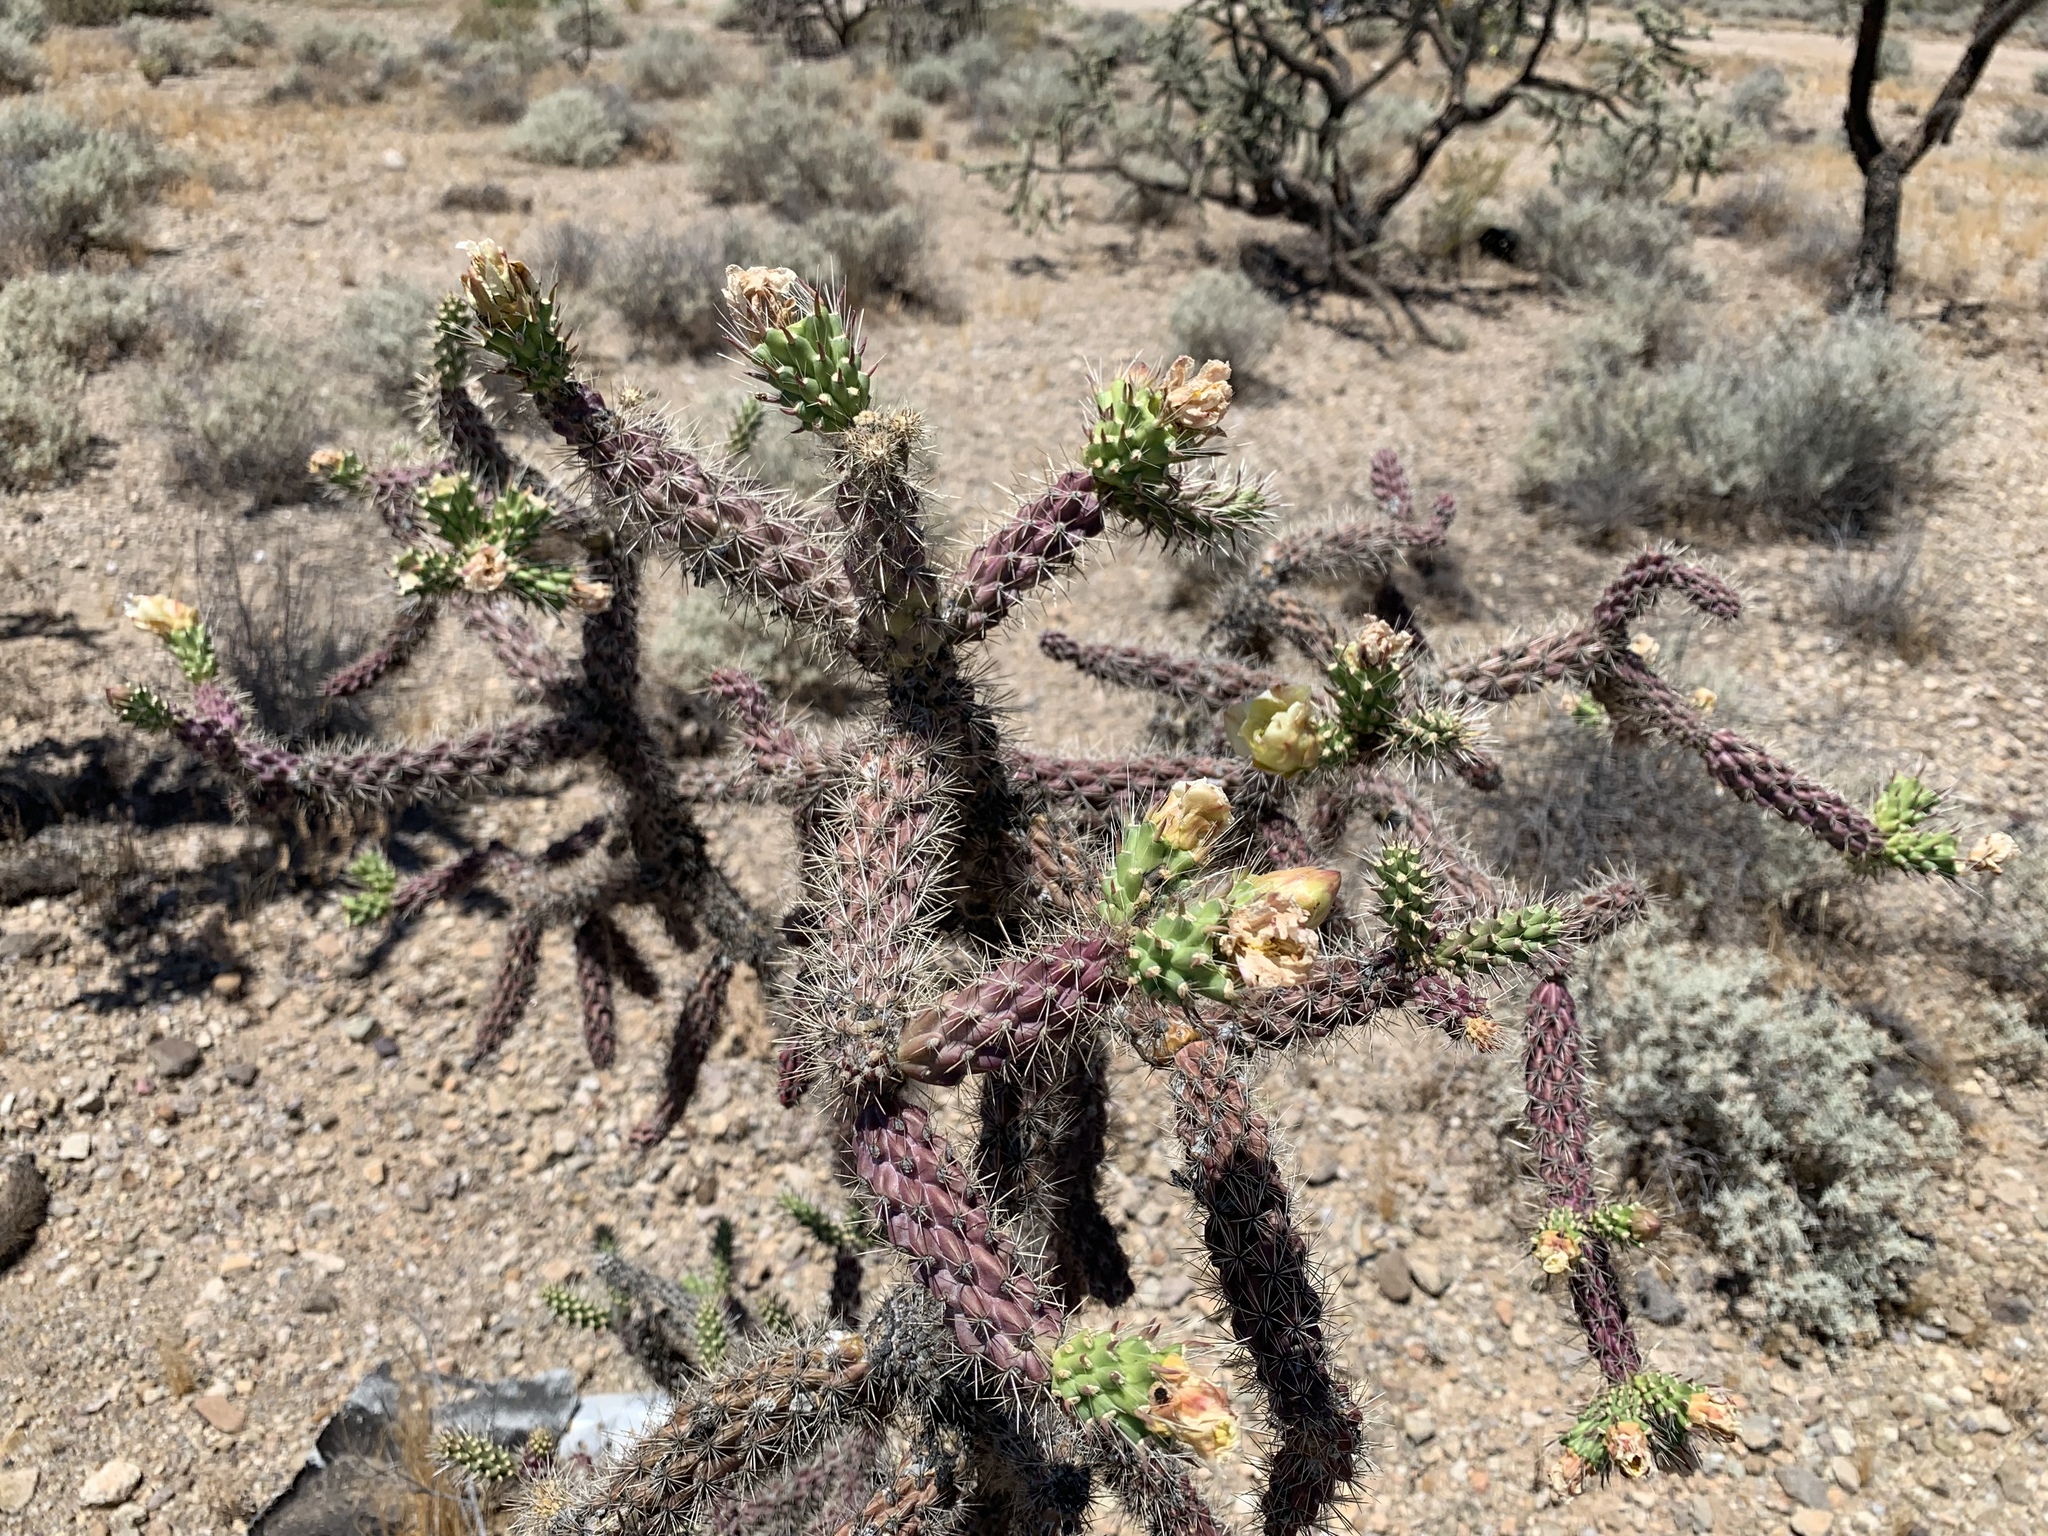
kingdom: Plantae
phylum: Tracheophyta
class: Magnoliopsida
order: Caryophyllales
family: Cactaceae
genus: Cylindropuntia
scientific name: Cylindropuntia thurberi
